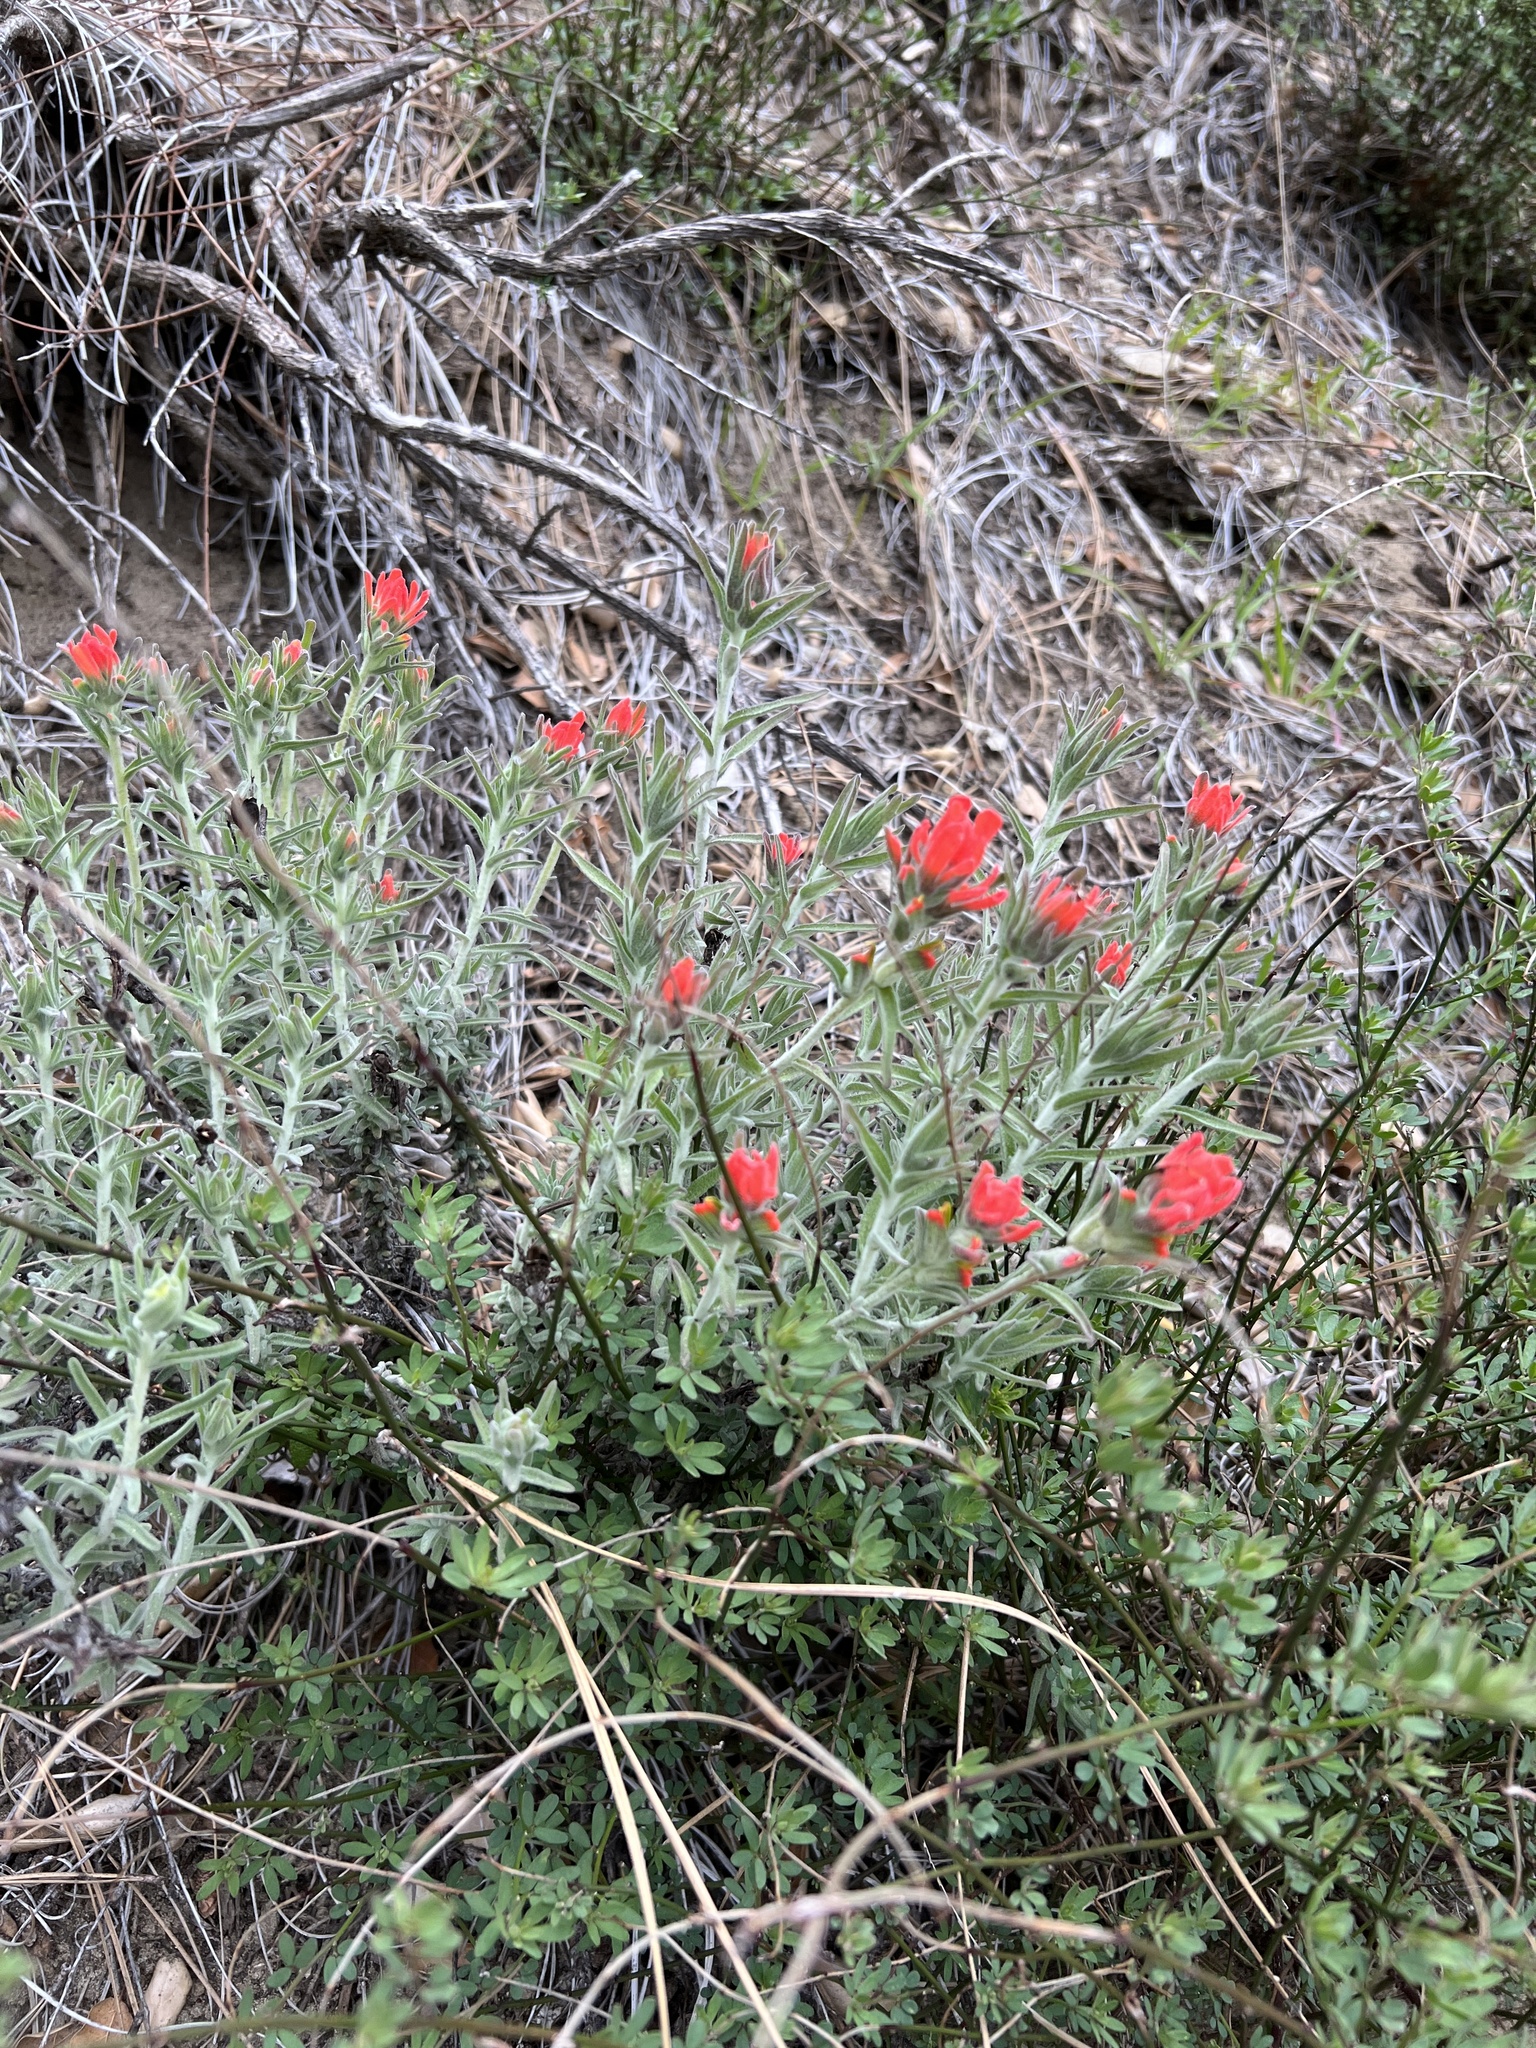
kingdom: Plantae
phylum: Tracheophyta
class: Magnoliopsida
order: Lamiales
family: Orobanchaceae
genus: Castilleja
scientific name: Castilleja foliolosa
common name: Woolly indian paintbrush
